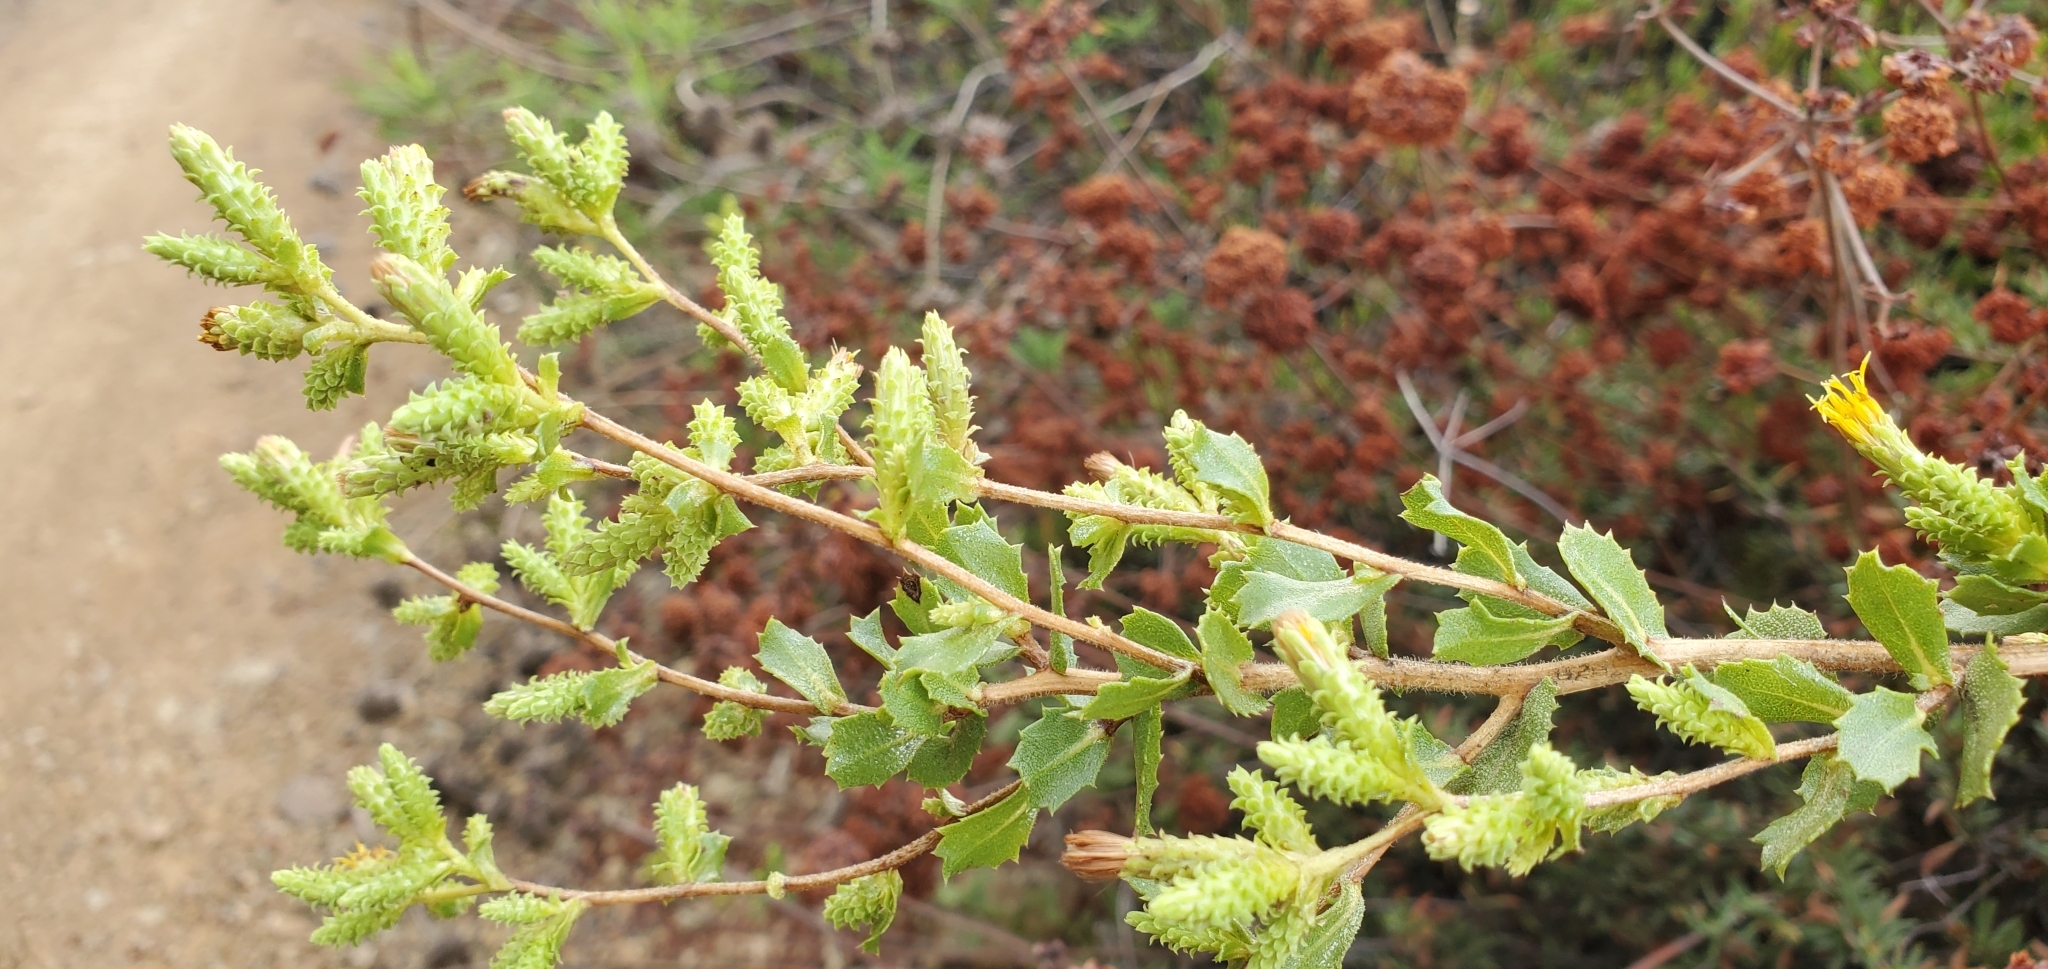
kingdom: Plantae
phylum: Tracheophyta
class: Magnoliopsida
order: Asterales
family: Asteraceae
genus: Hazardia
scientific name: Hazardia squarrosa
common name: Saw-tooth goldenbush
